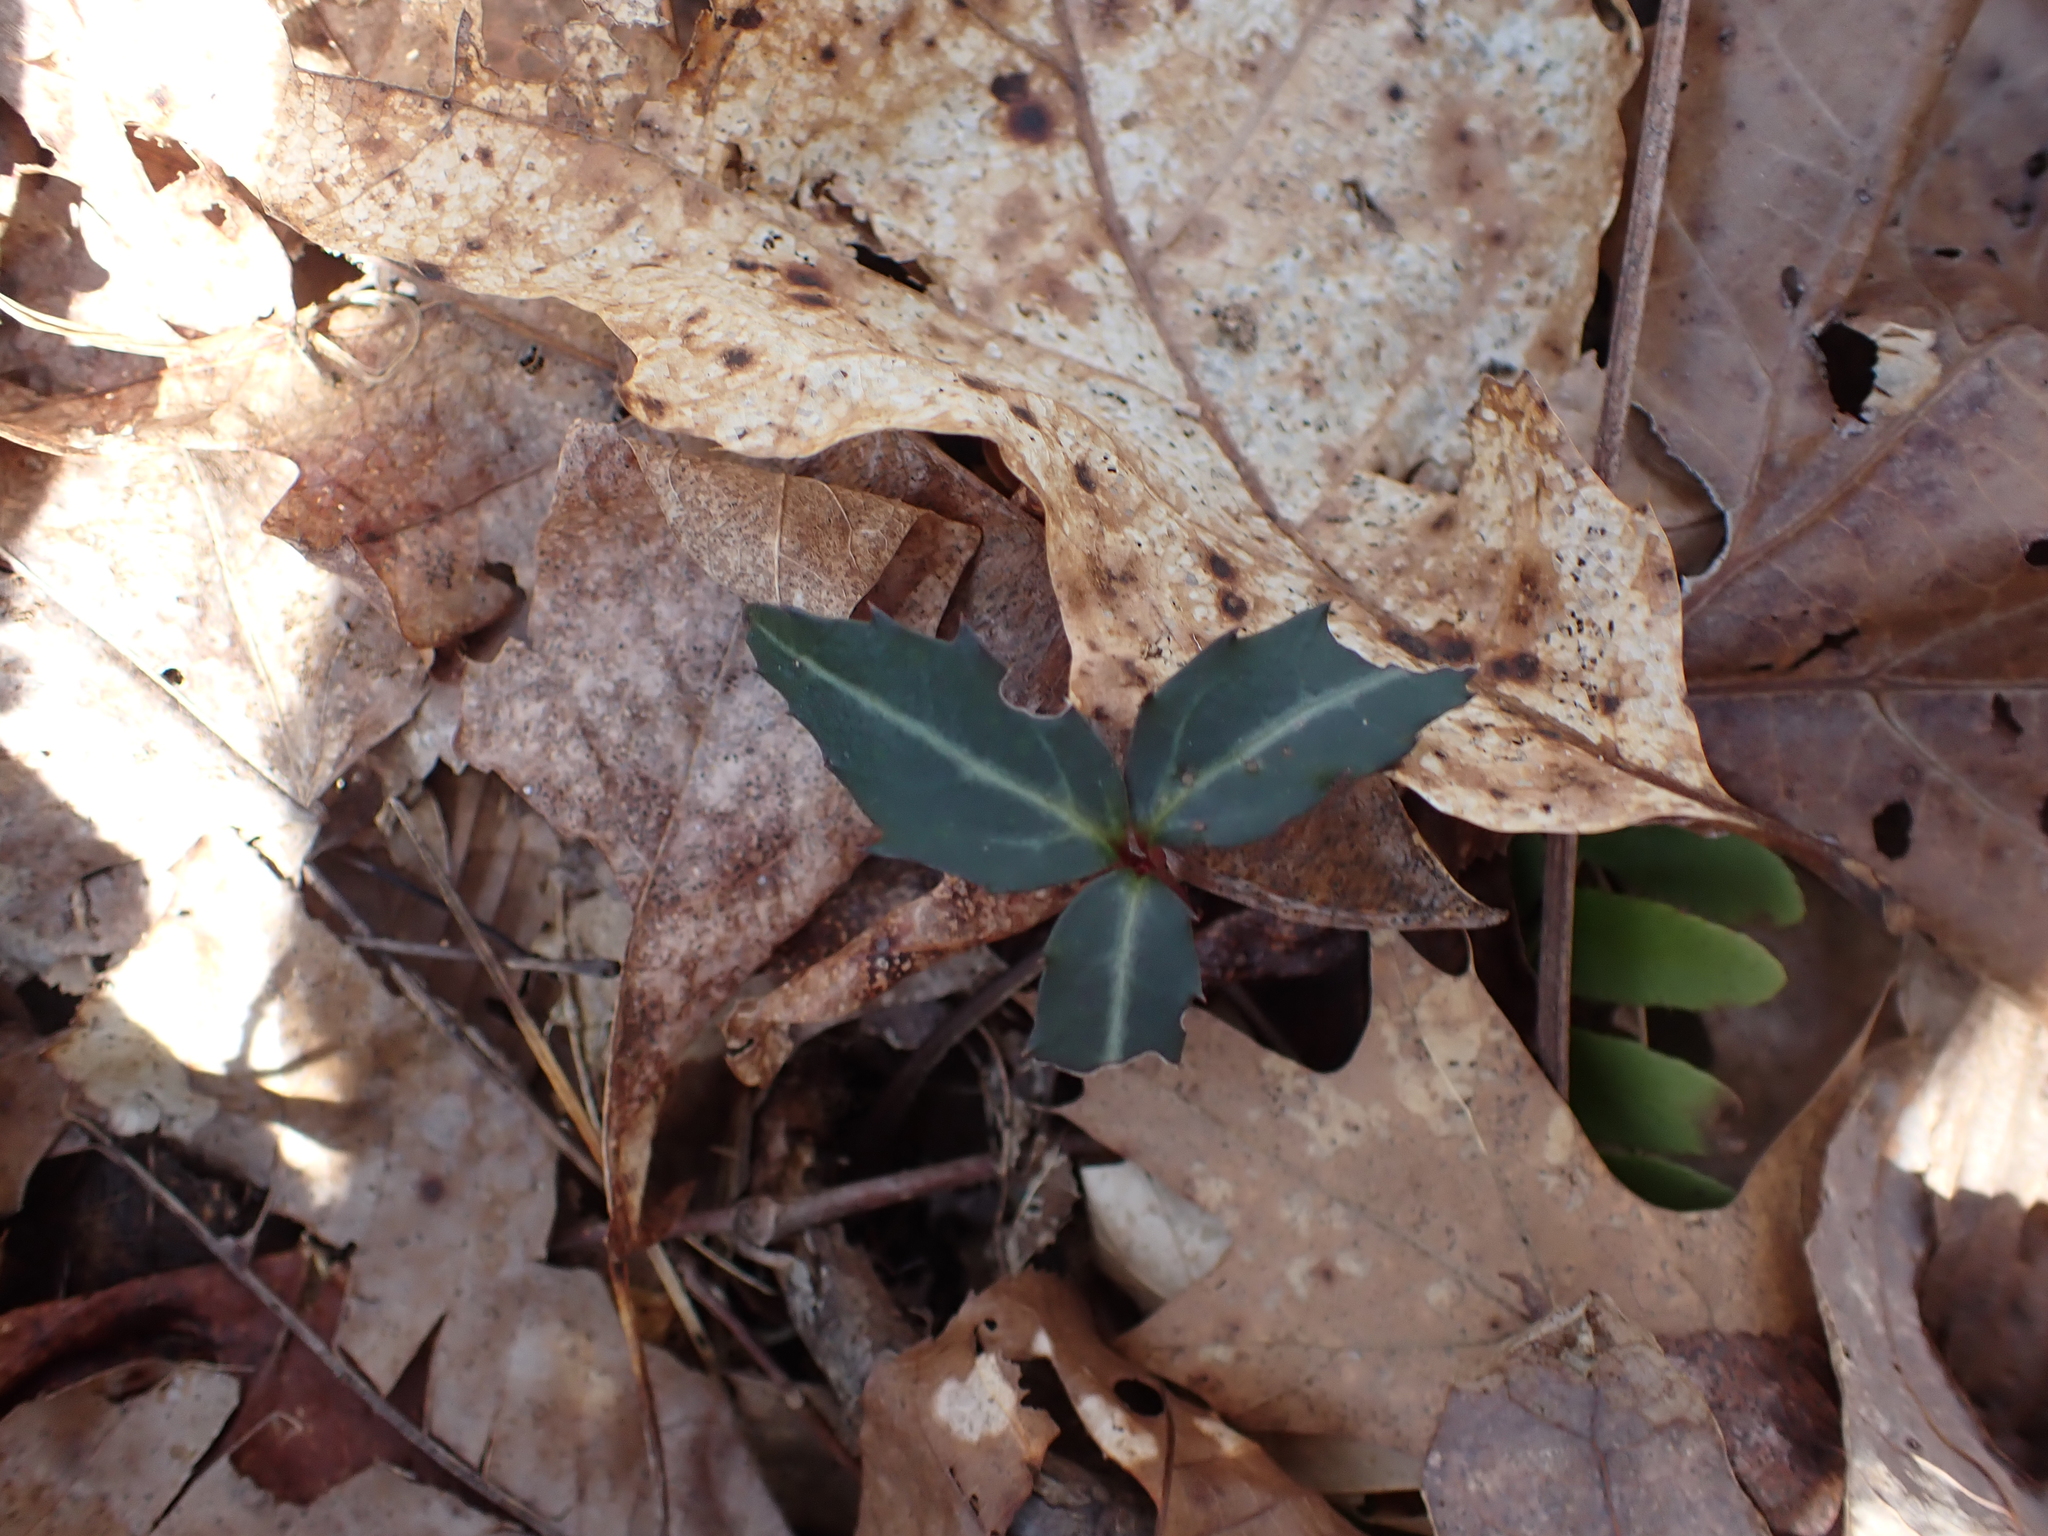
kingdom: Plantae
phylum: Tracheophyta
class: Magnoliopsida
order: Ericales
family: Ericaceae
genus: Chimaphila
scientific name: Chimaphila maculata
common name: Spotted pipsissewa
